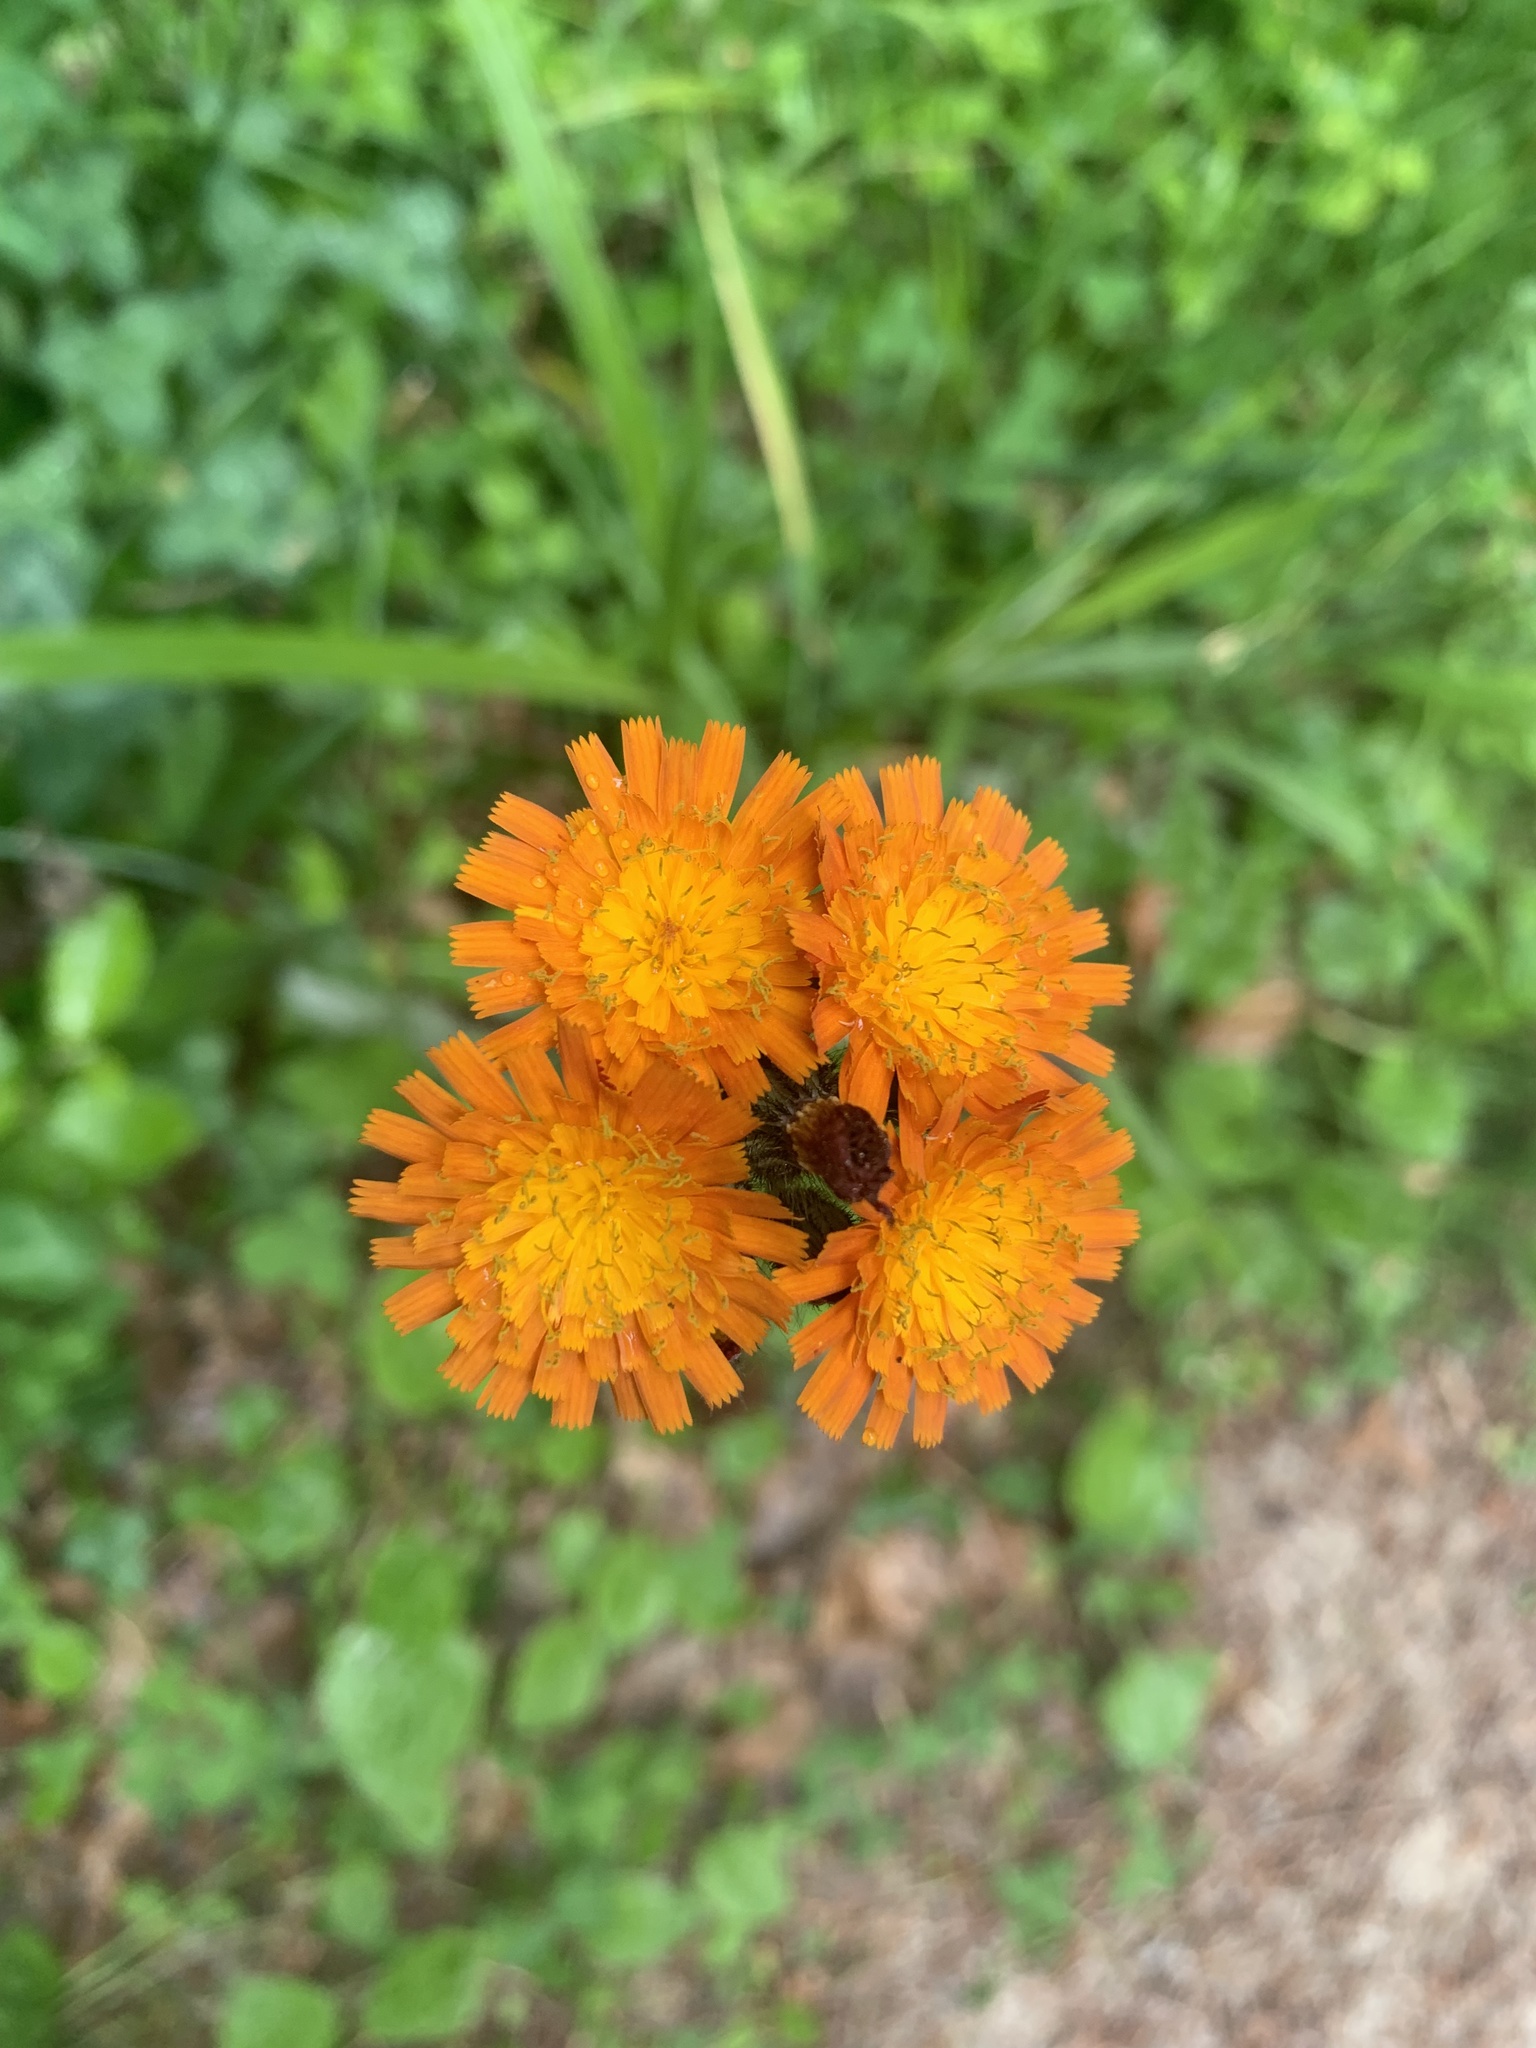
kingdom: Plantae
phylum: Tracheophyta
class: Magnoliopsida
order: Asterales
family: Asteraceae
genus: Pilosella
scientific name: Pilosella aurantiaca
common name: Fox-and-cubs
